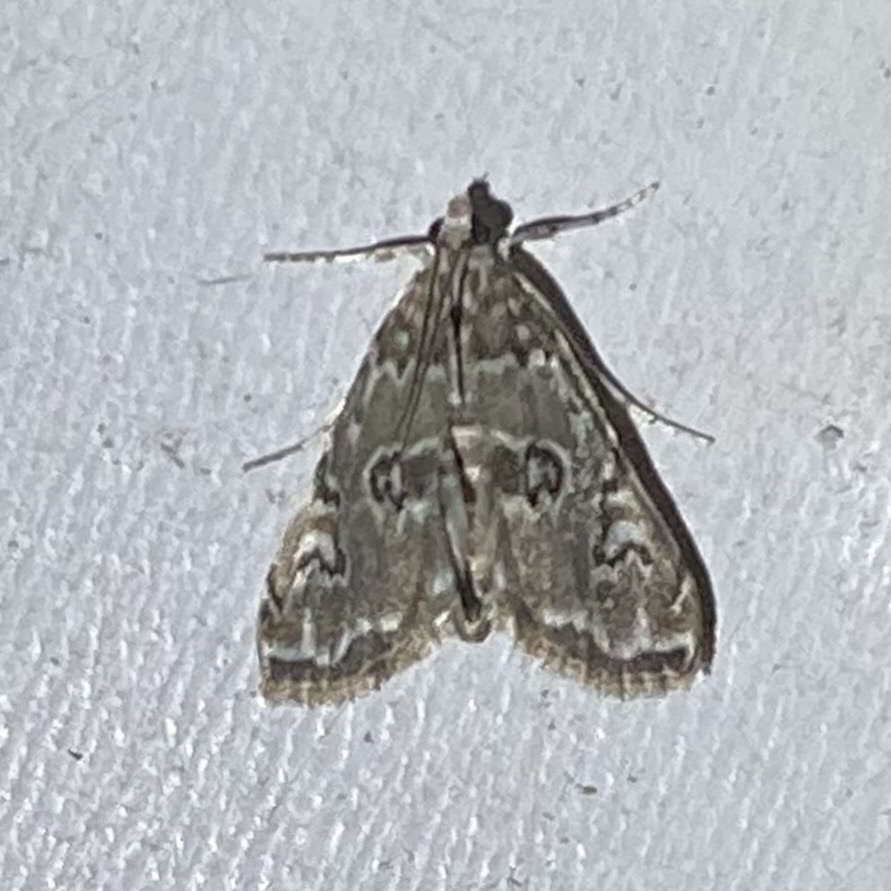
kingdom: Animalia
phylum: Arthropoda
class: Insecta
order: Lepidoptera
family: Crambidae
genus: Elophila
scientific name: Elophila gyralis
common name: Waterlily borer moth
